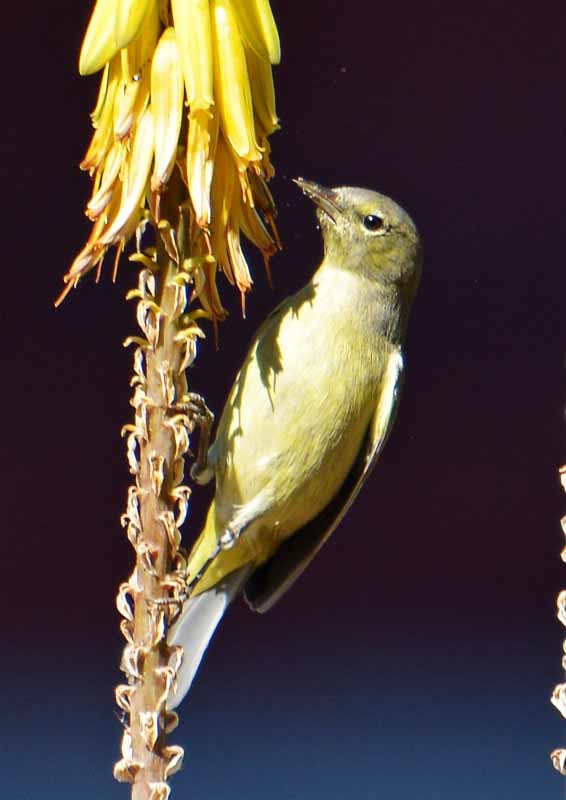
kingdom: Animalia
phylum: Chordata
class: Aves
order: Passeriformes
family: Parulidae
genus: Leiothlypis
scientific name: Leiothlypis celata
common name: Orange-crowned warbler
